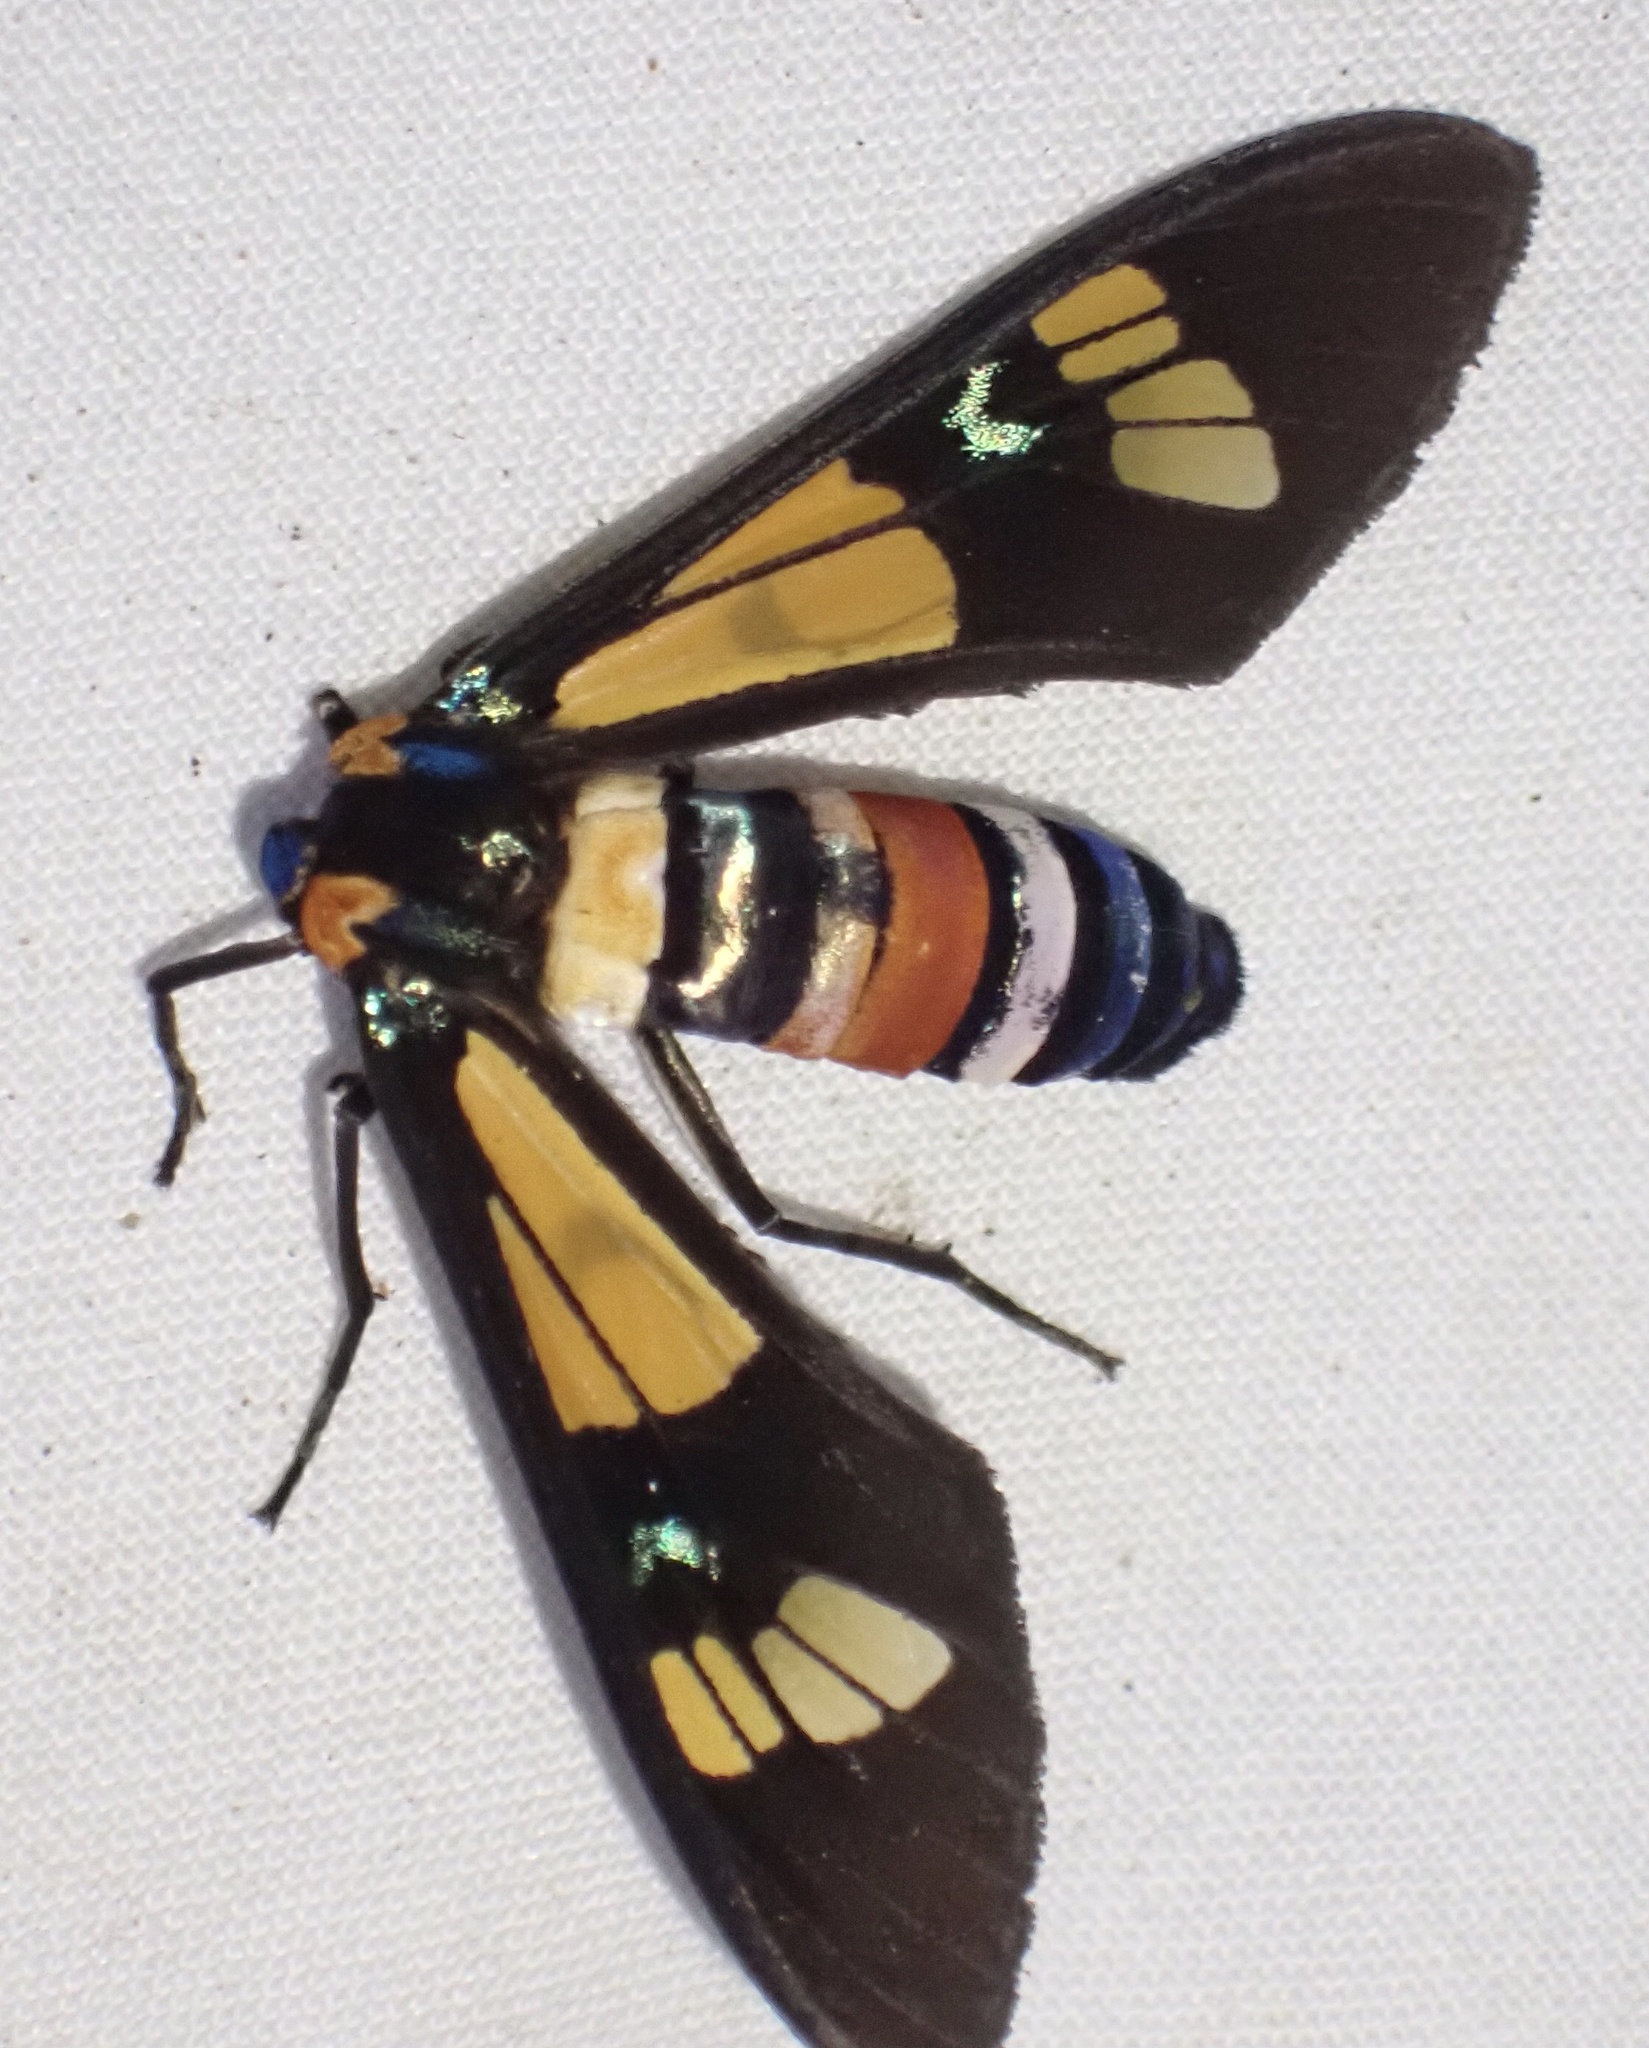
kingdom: Animalia
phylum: Arthropoda
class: Insecta
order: Lepidoptera
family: Erebidae
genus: Euchromia
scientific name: Euchromia lethe
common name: Basker
